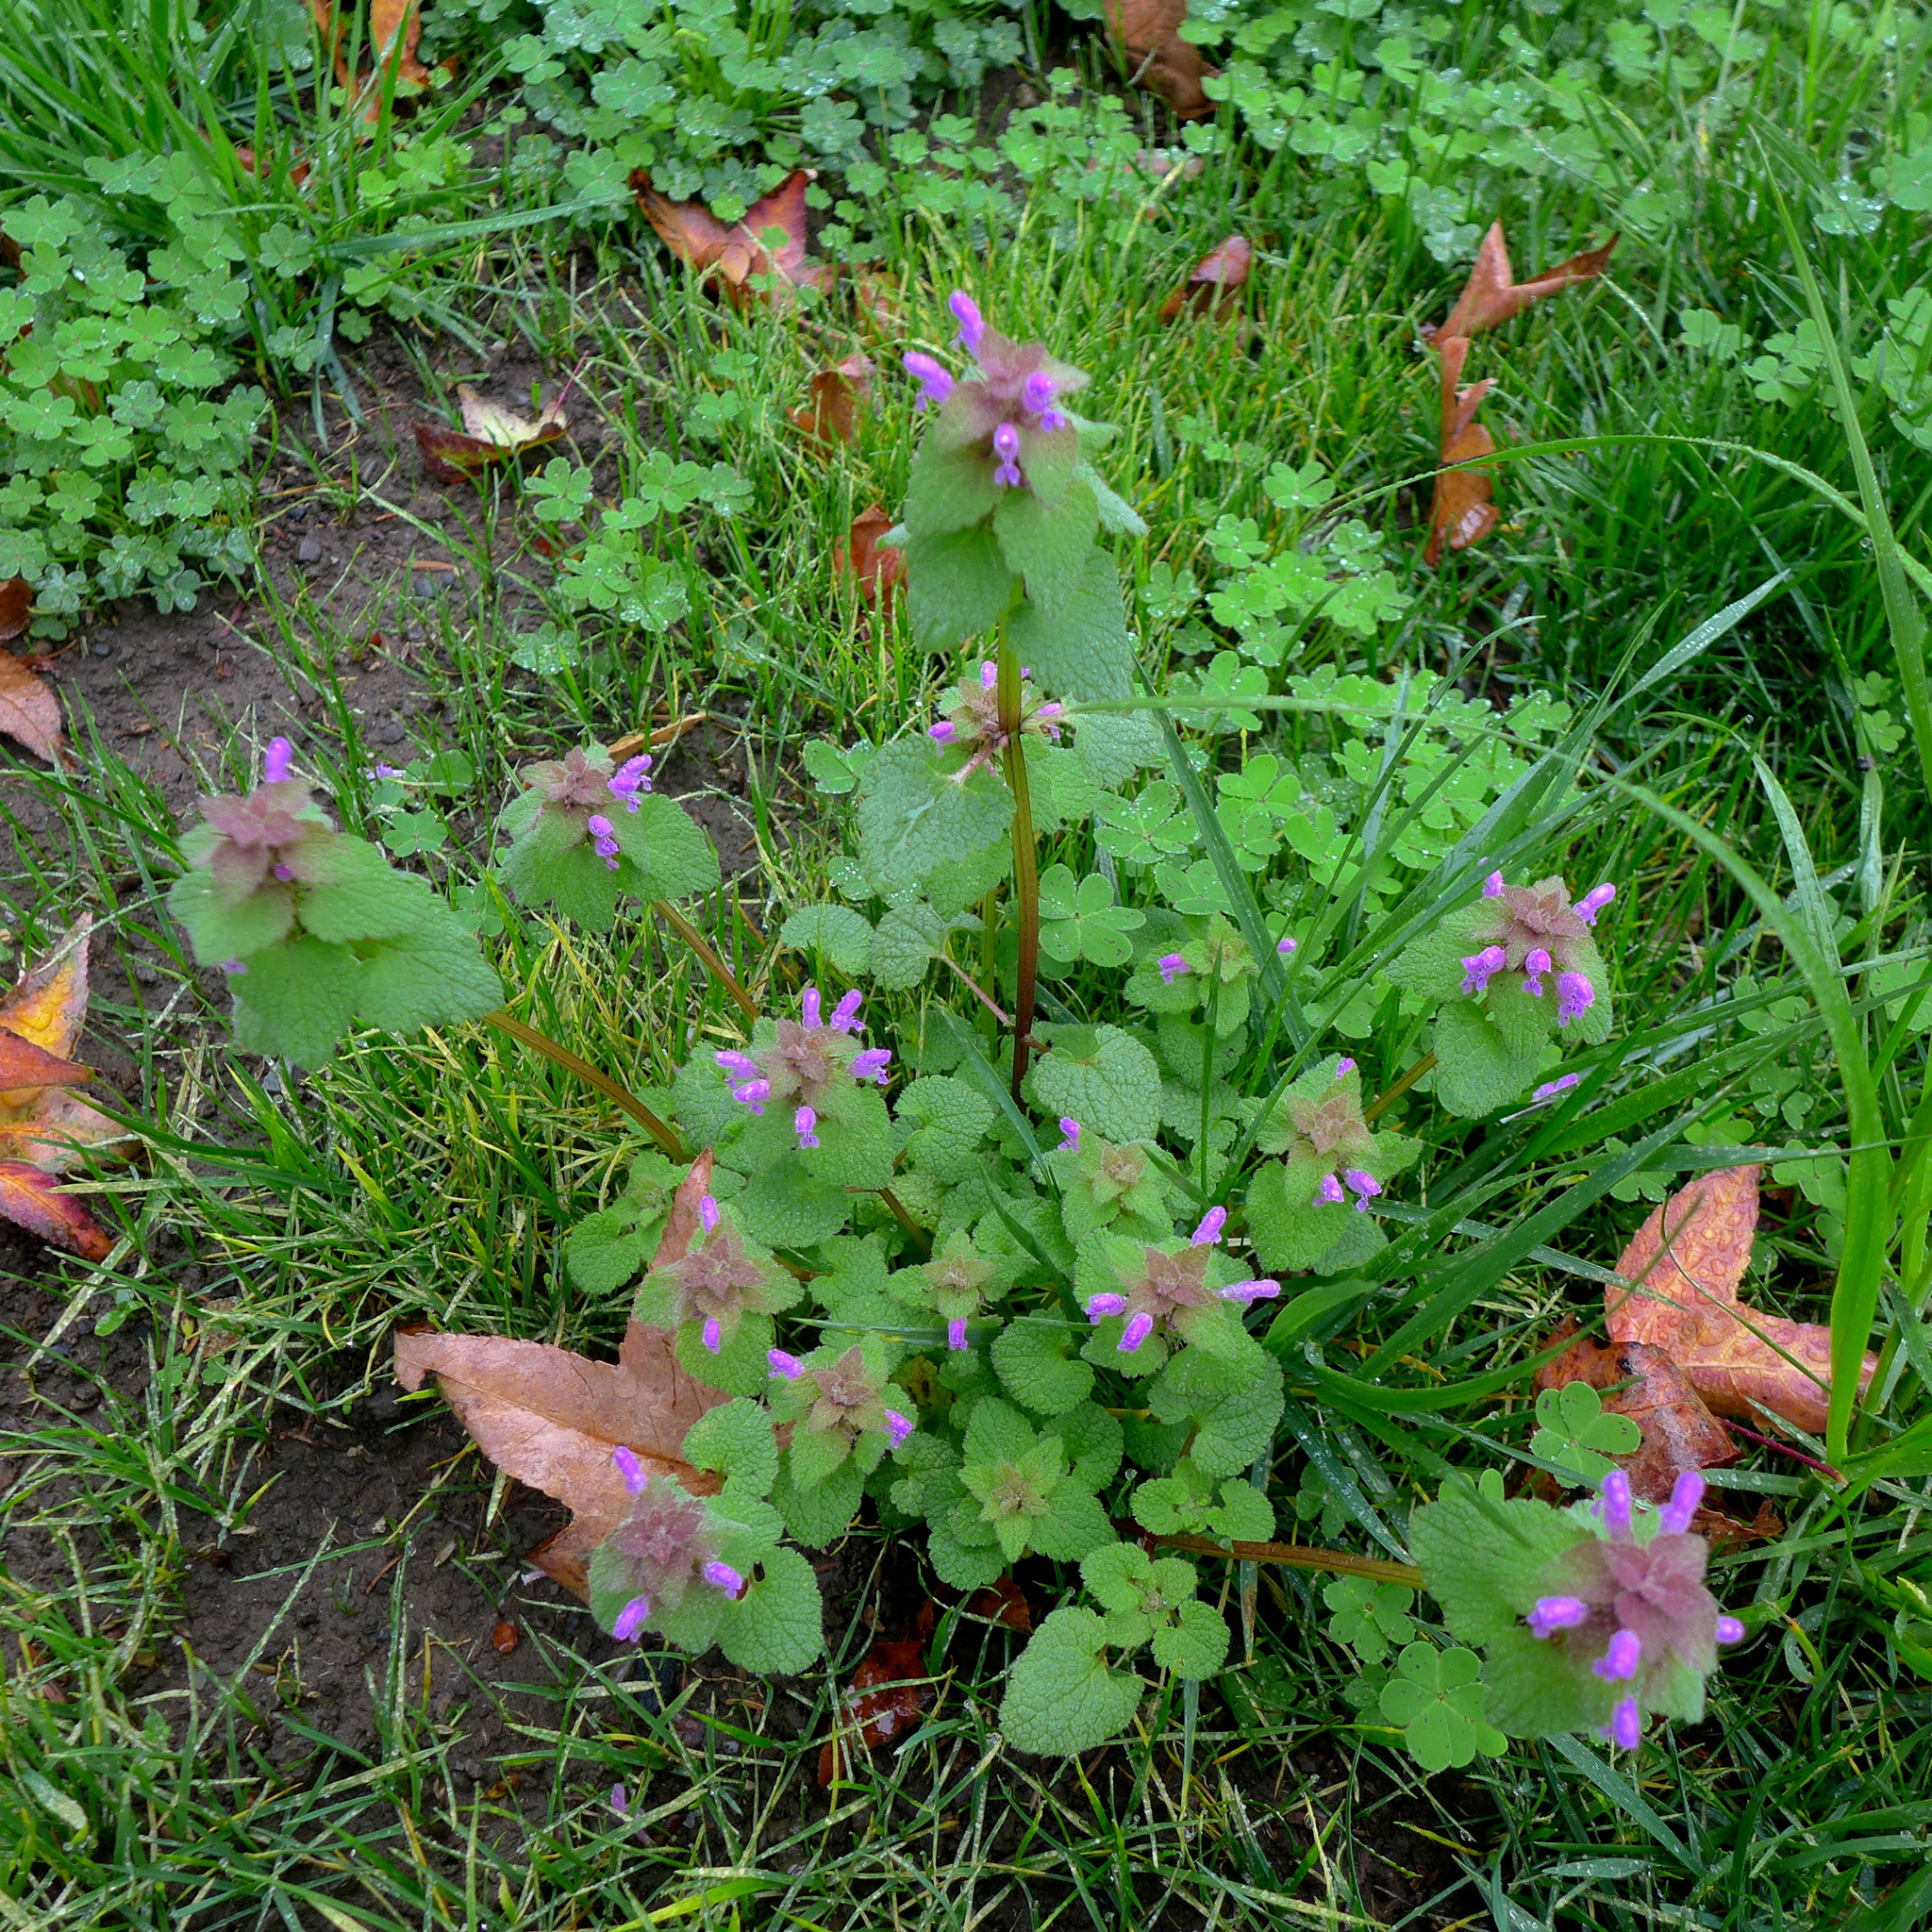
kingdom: Plantae
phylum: Tracheophyta
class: Magnoliopsida
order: Lamiales
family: Lamiaceae
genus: Lamium
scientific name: Lamium purpureum
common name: Red dead-nettle
